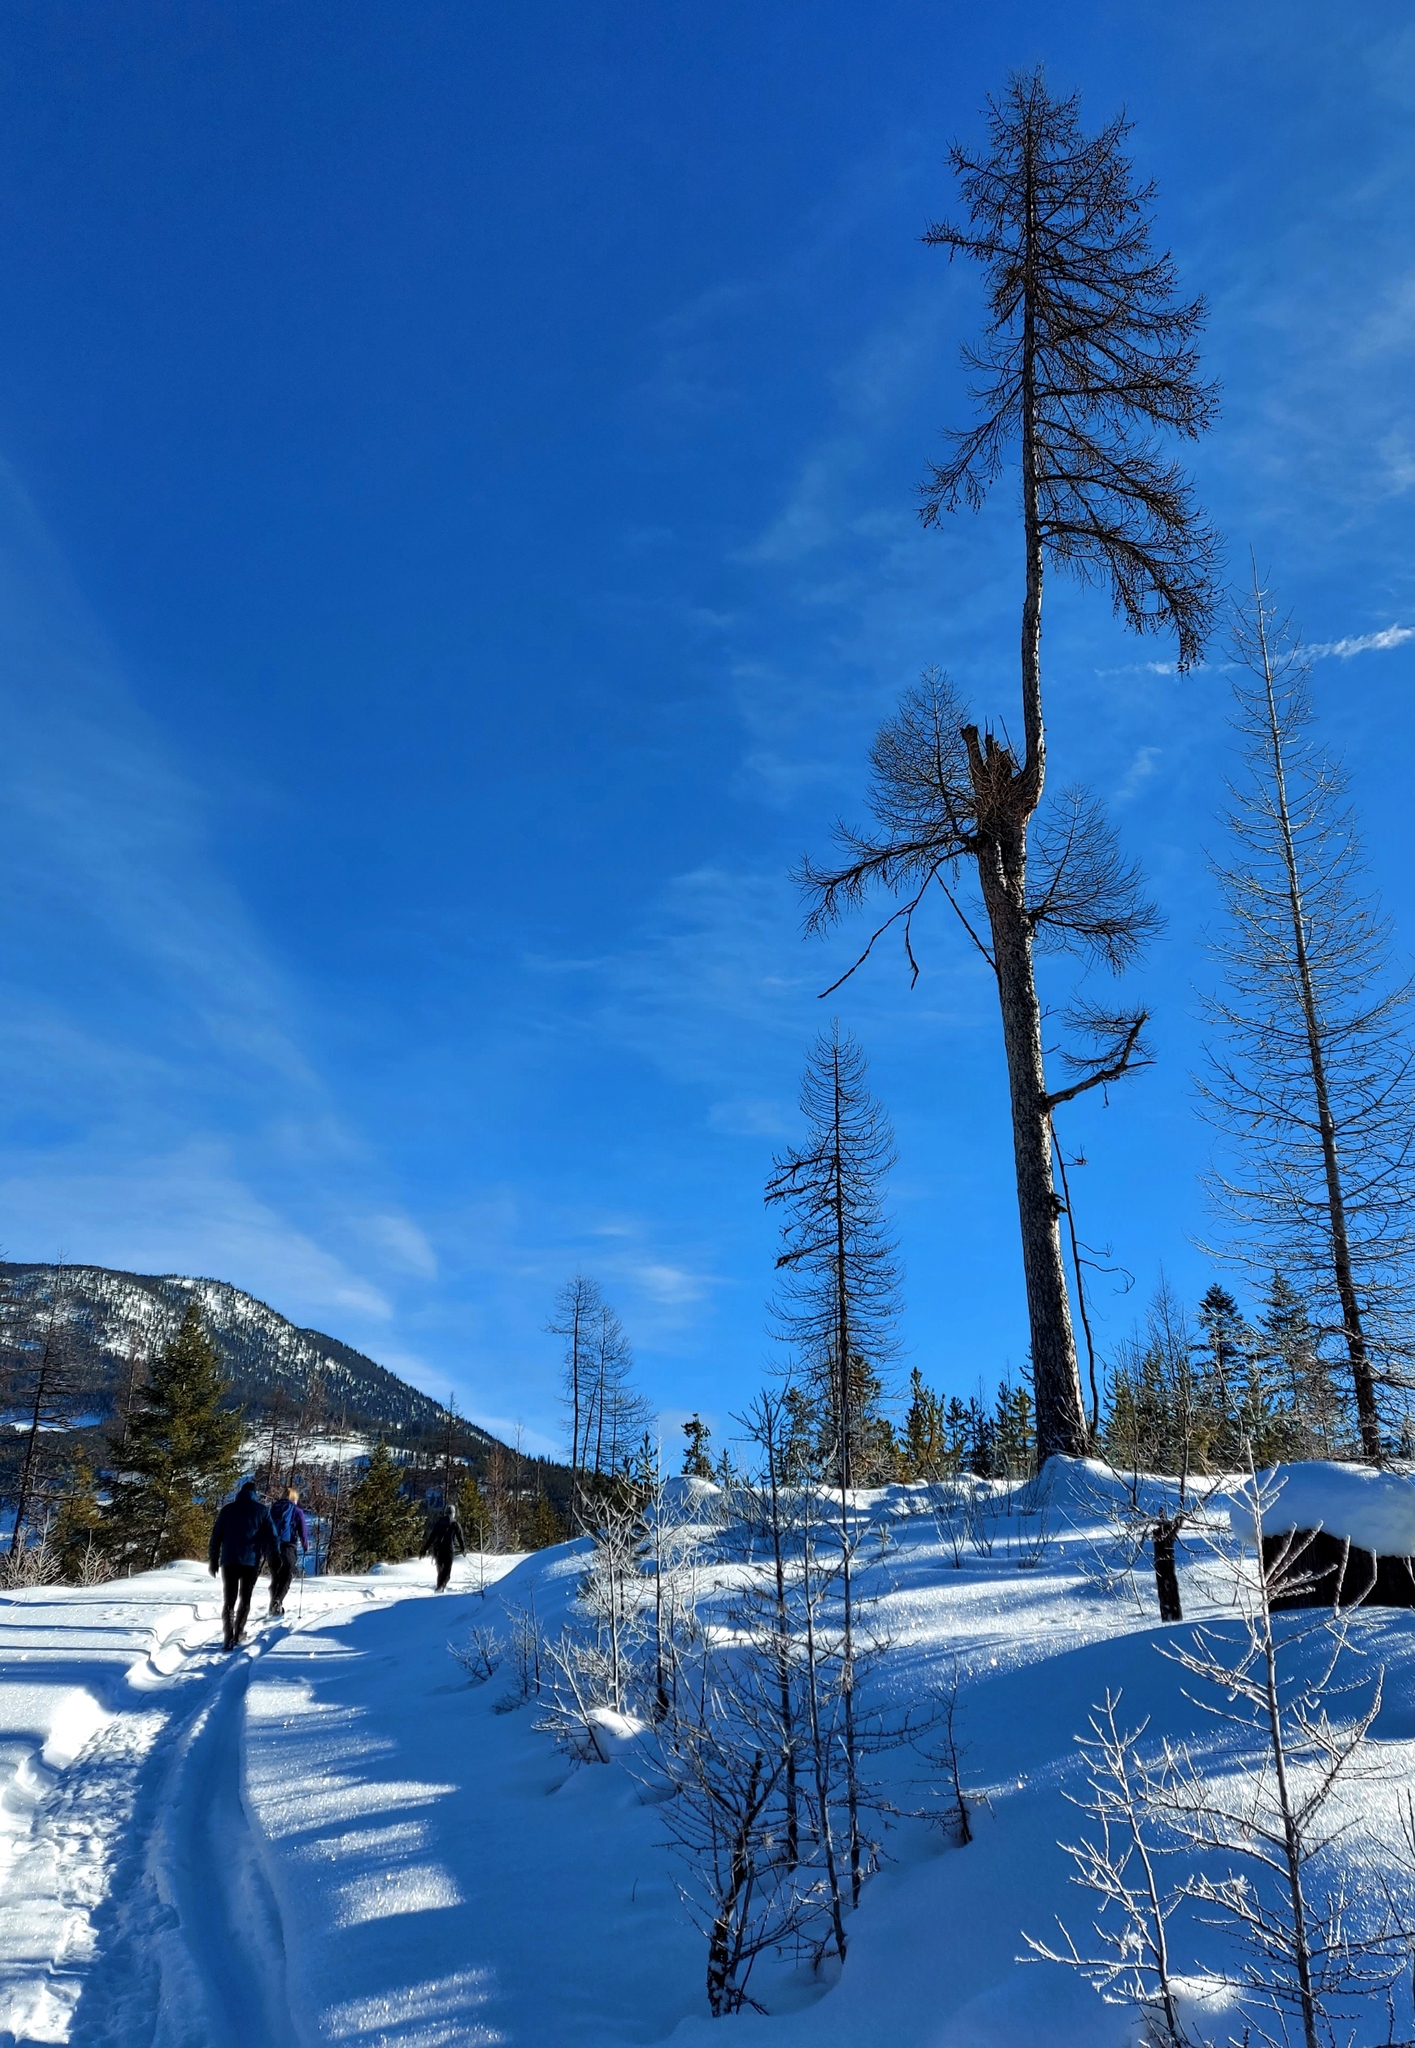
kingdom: Plantae
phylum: Tracheophyta
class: Pinopsida
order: Pinales
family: Pinaceae
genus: Larix
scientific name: Larix occidentalis
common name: Western larch
